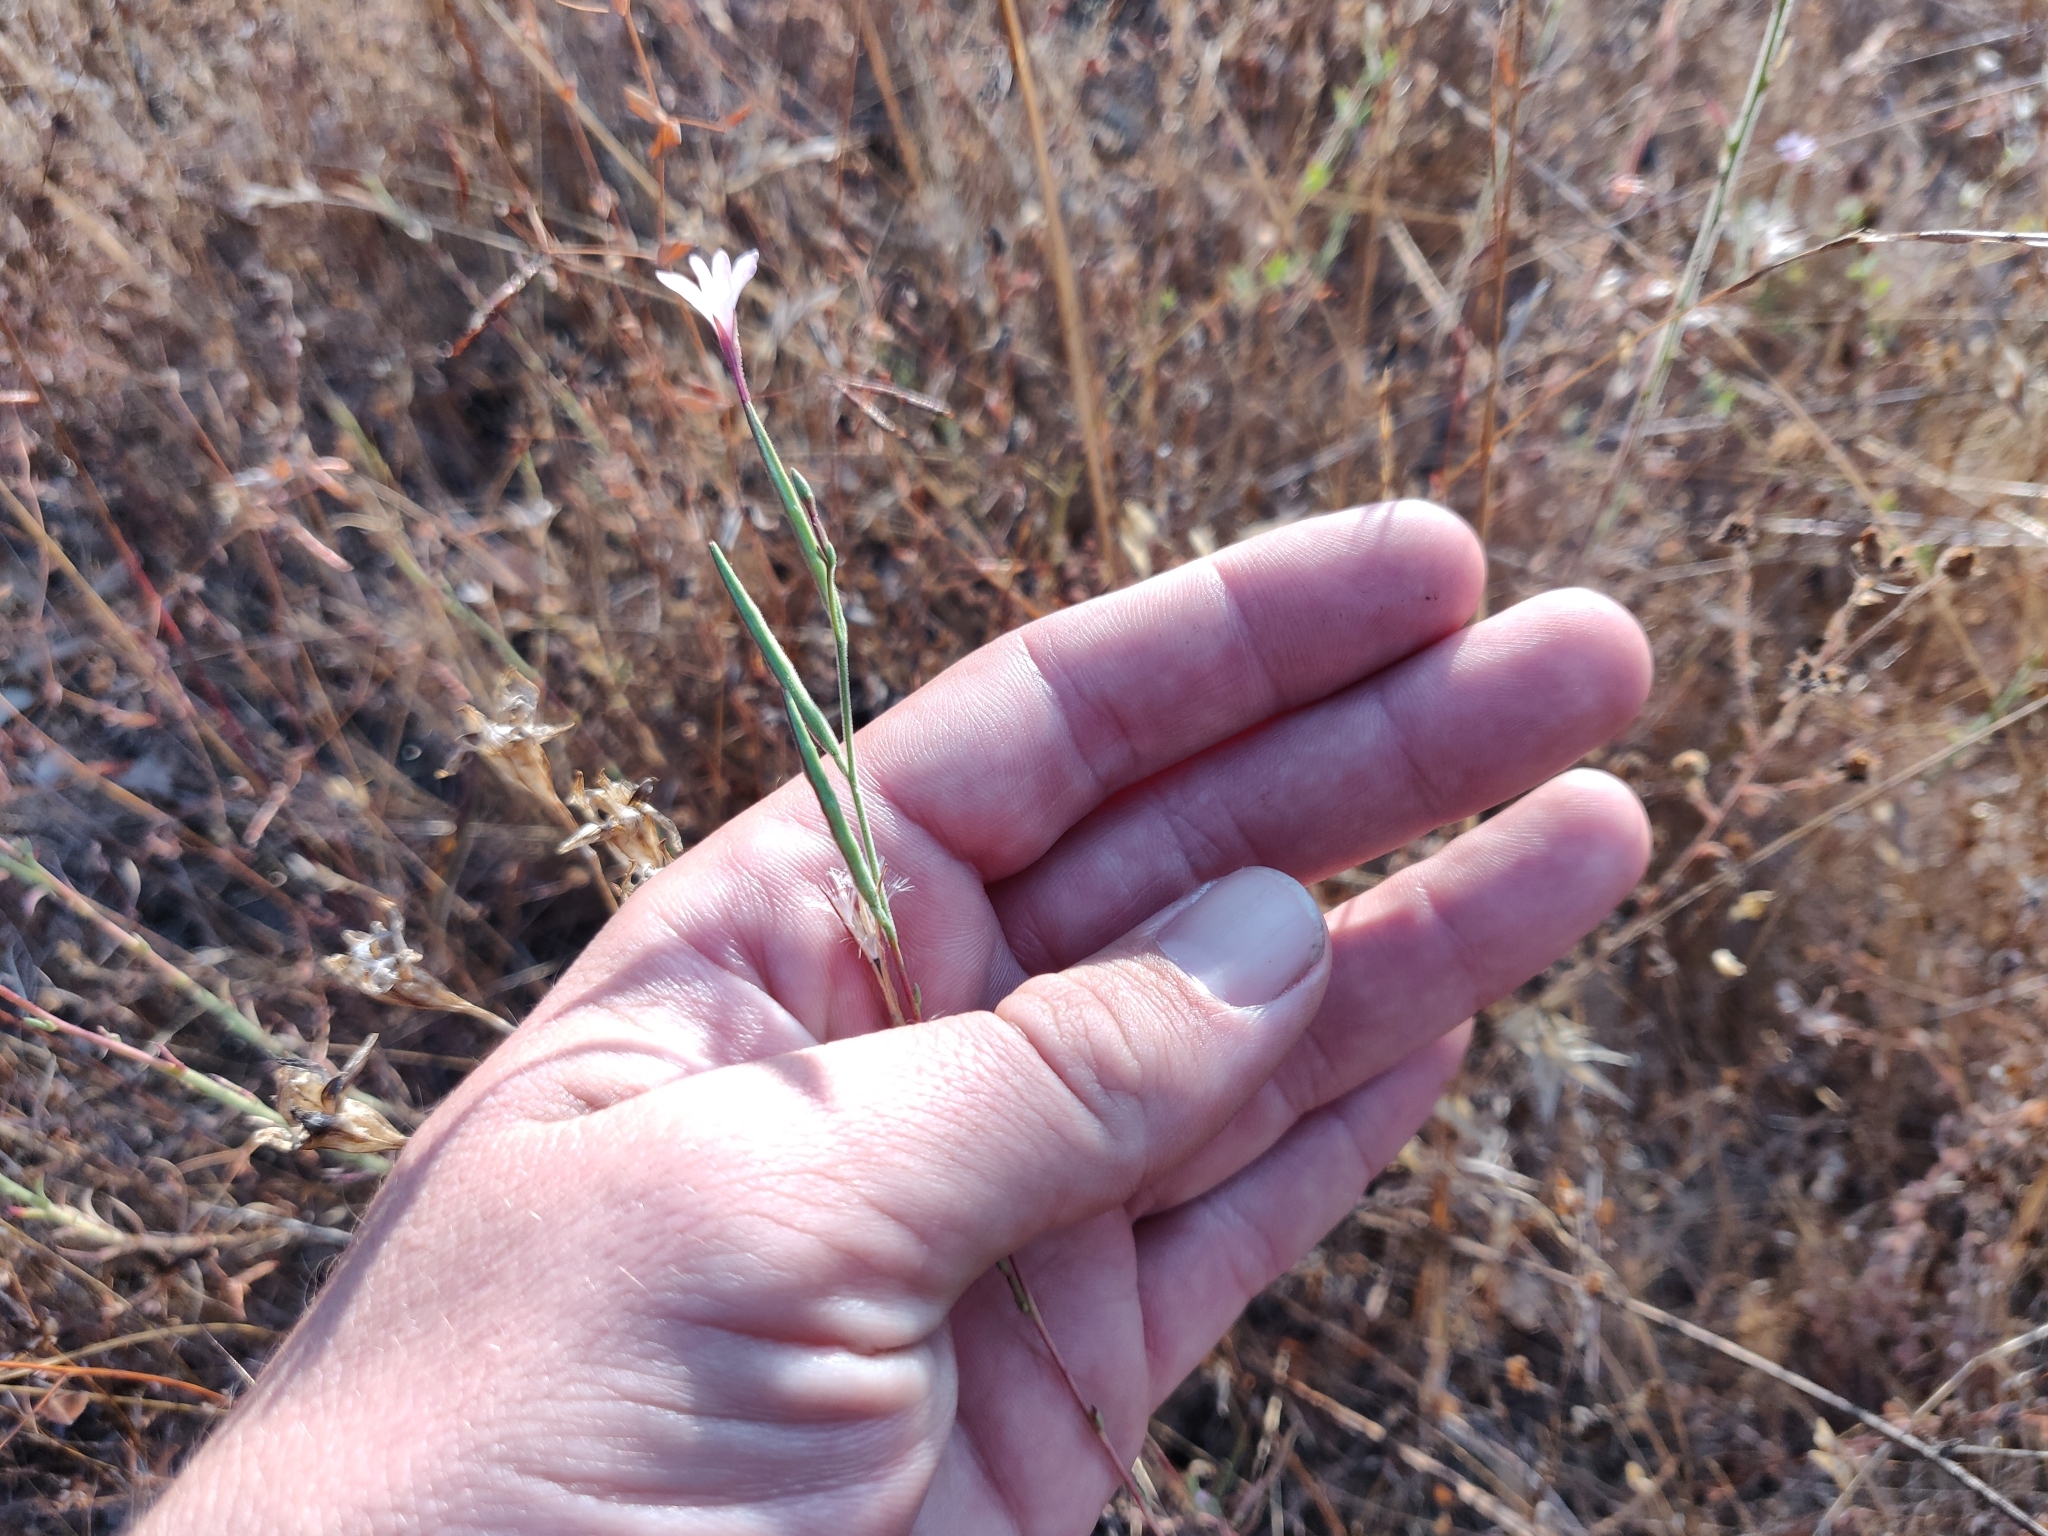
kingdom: Plantae
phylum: Tracheophyta
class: Magnoliopsida
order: Myrtales
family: Onagraceae
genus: Epilobium
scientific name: Epilobium brachycarpum
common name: Annual willowherb
